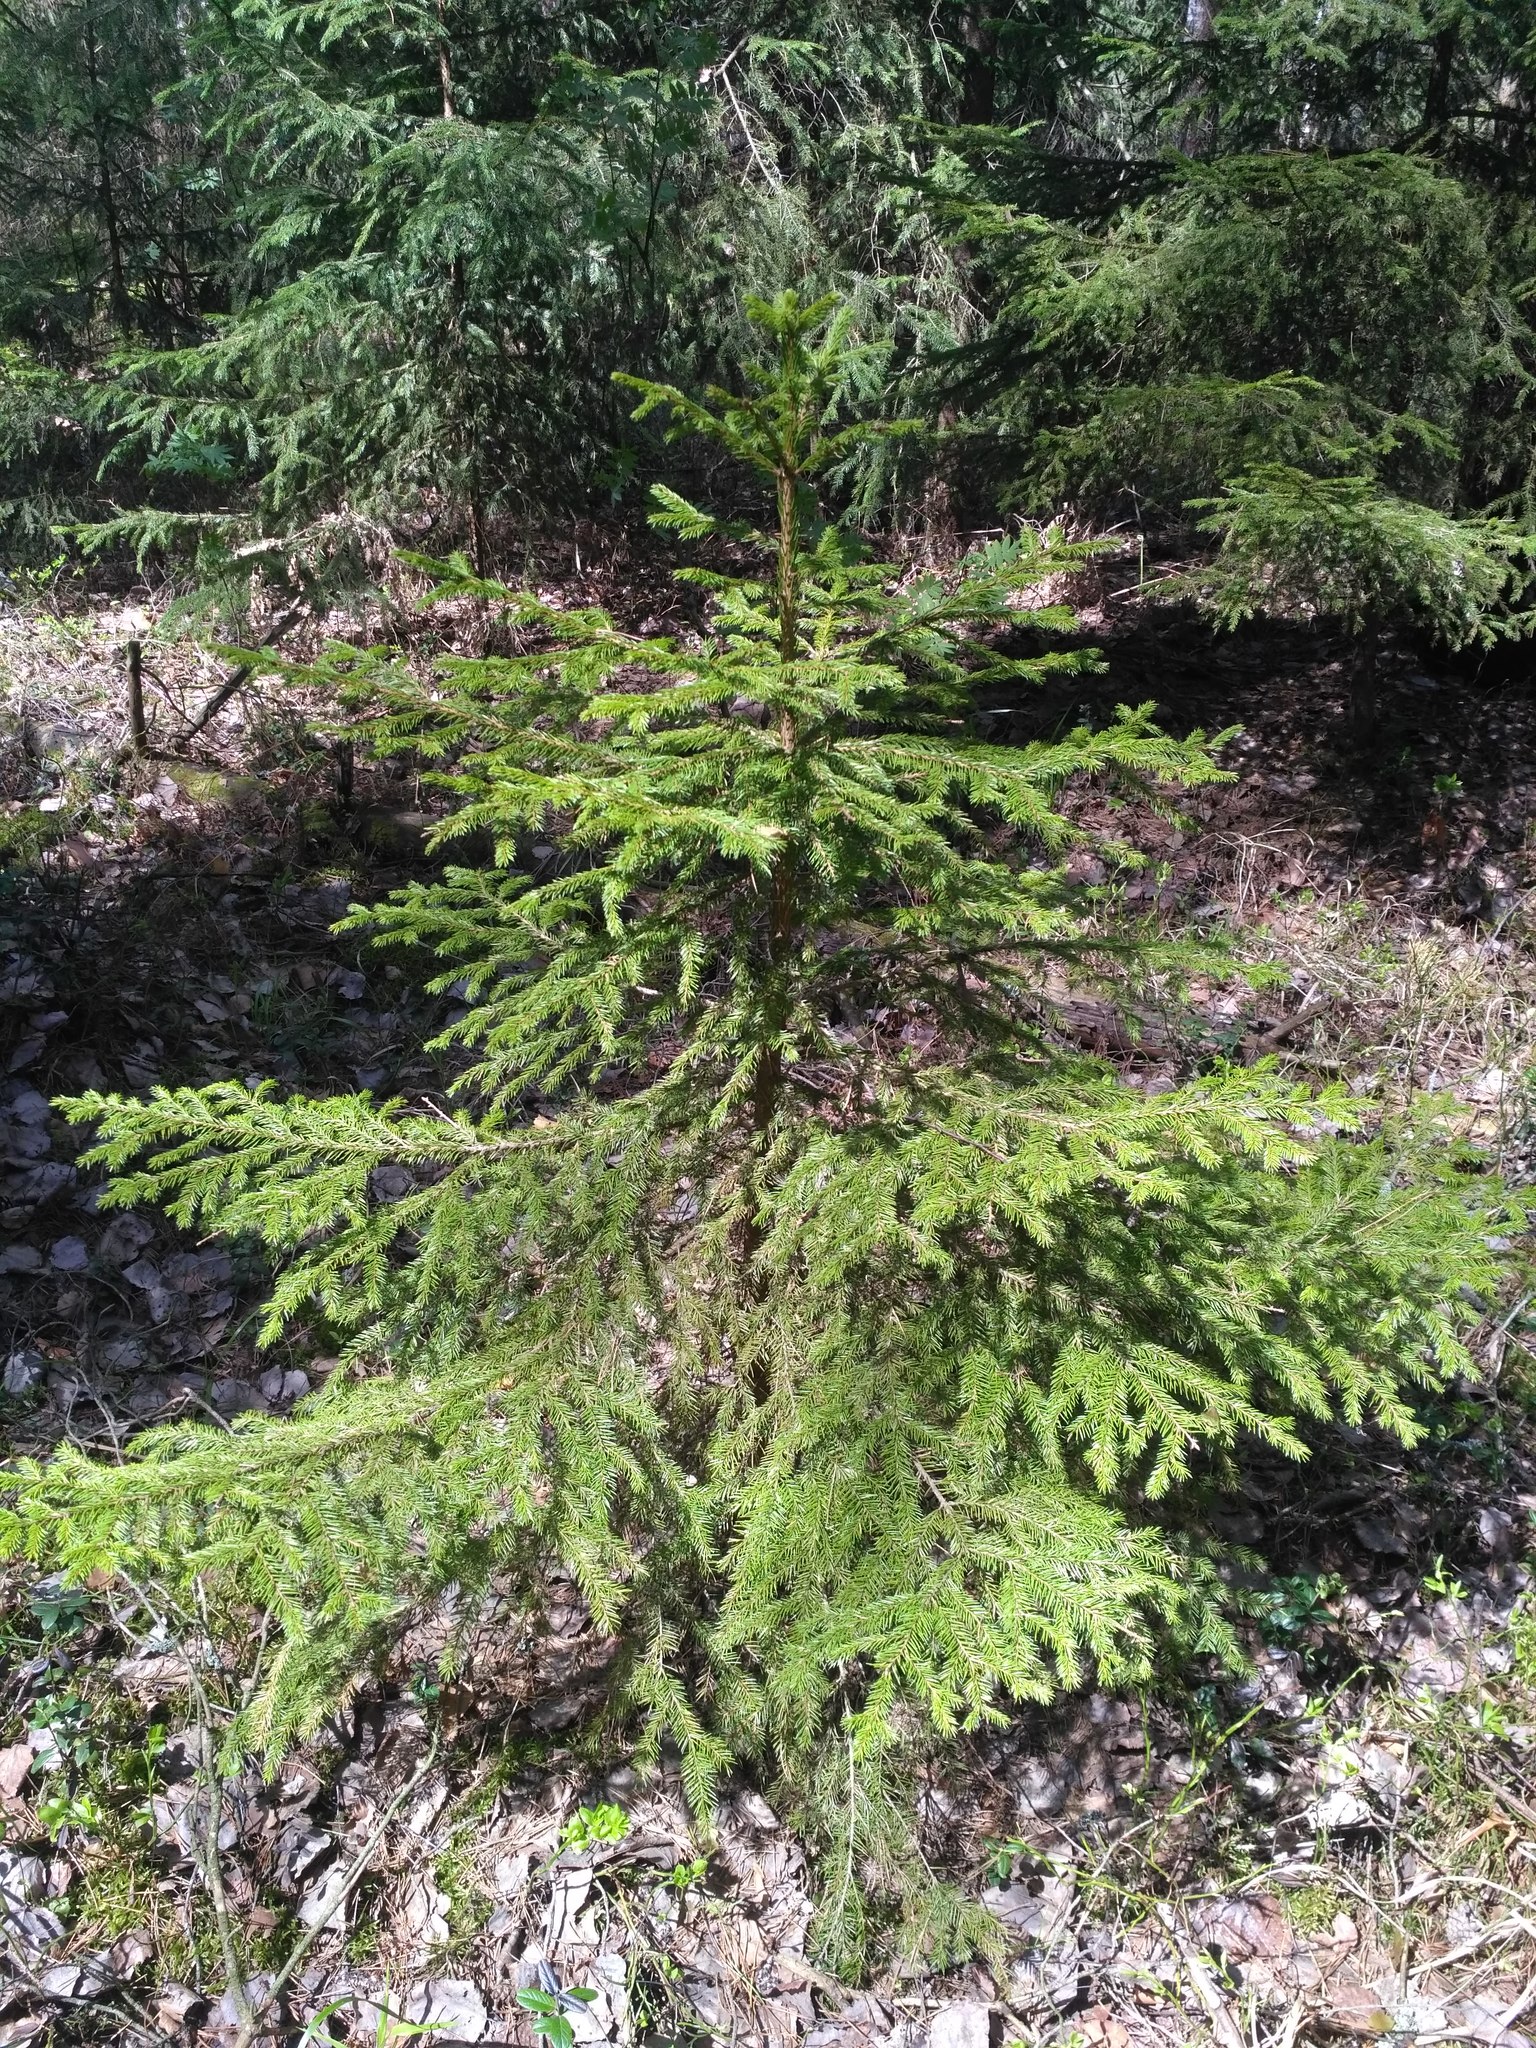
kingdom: Plantae
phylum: Tracheophyta
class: Pinopsida
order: Pinales
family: Pinaceae
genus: Picea
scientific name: Picea abies
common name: Norway spruce
